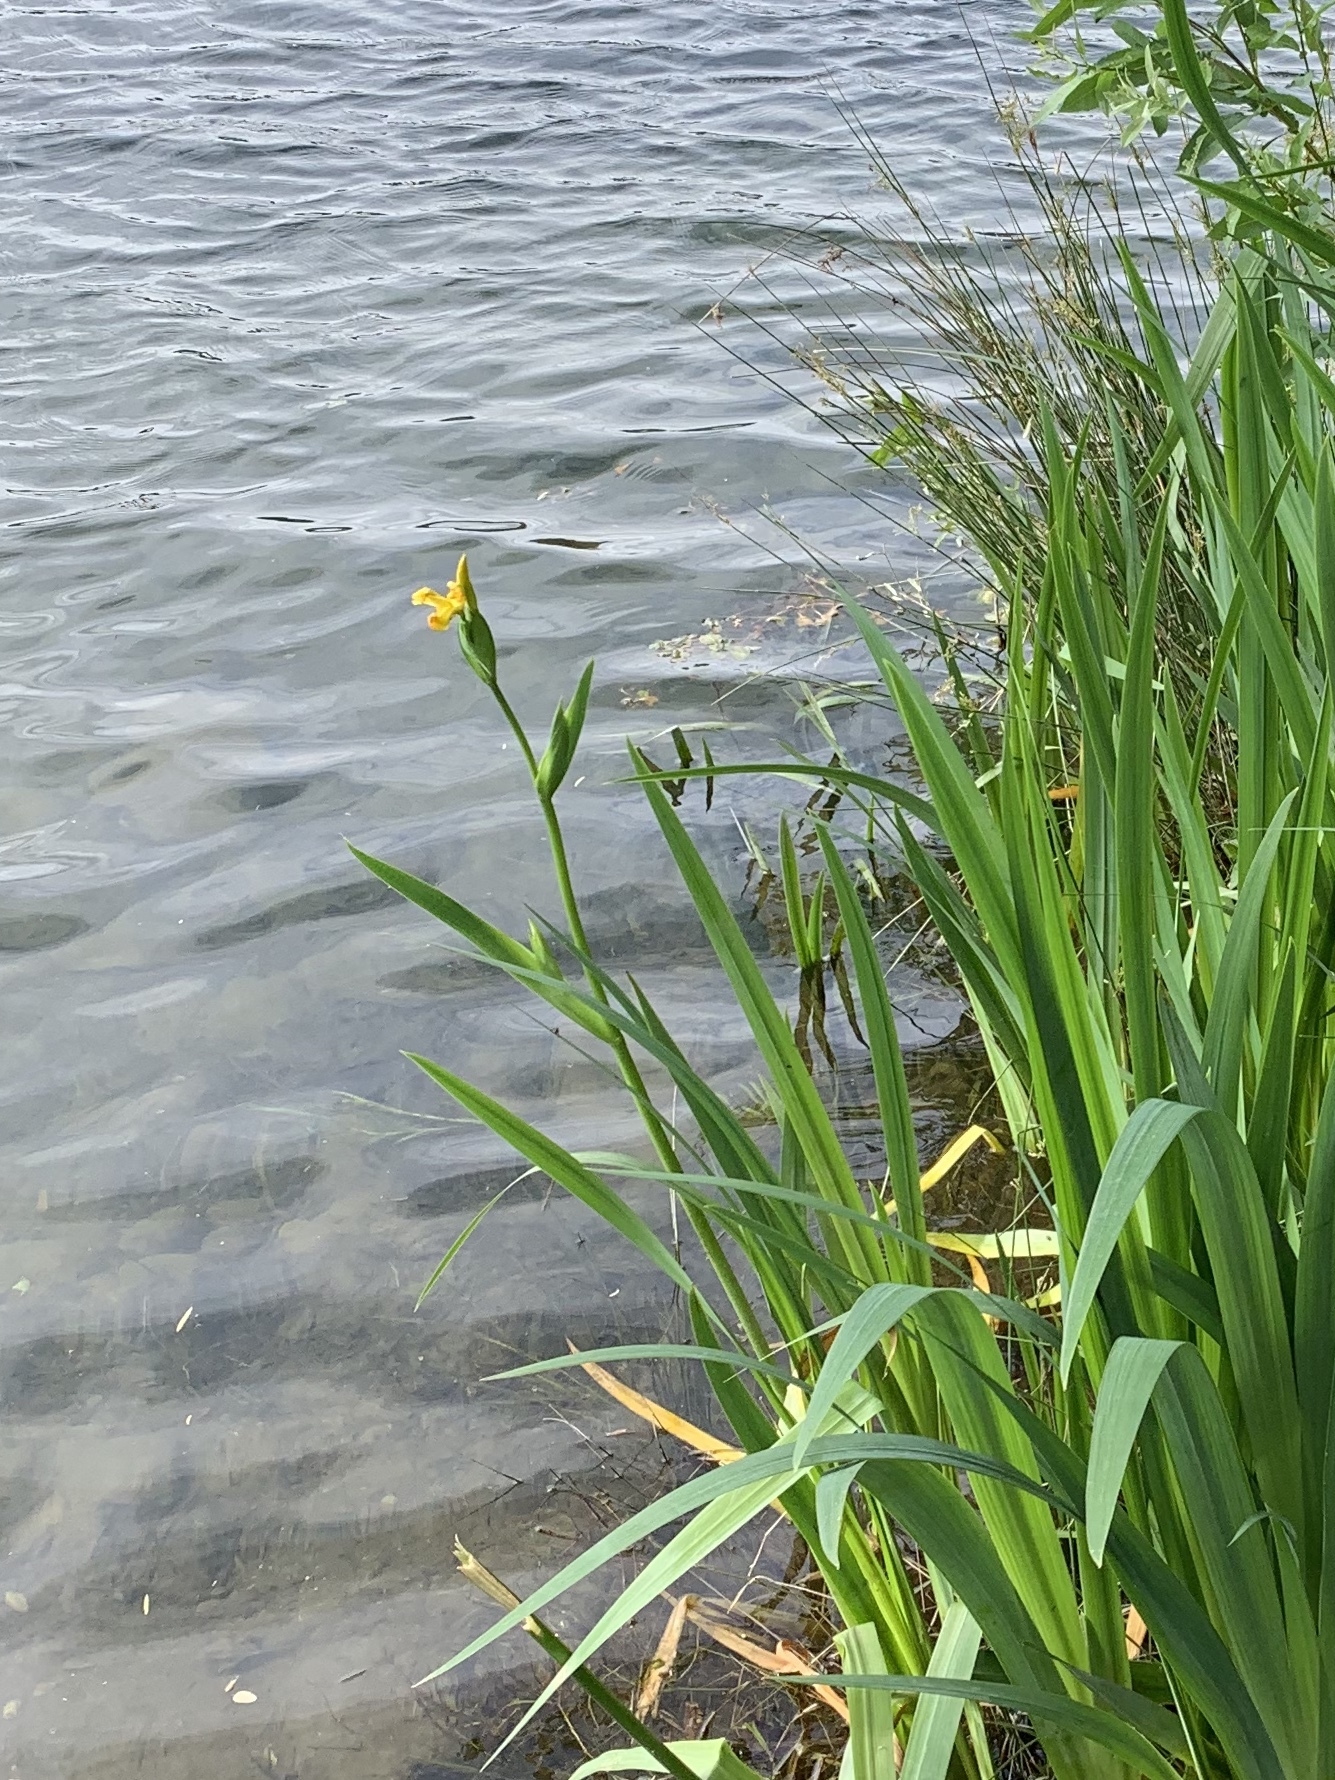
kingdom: Plantae
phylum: Tracheophyta
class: Liliopsida
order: Asparagales
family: Iridaceae
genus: Iris
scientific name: Iris pseudacorus
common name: Yellow flag
